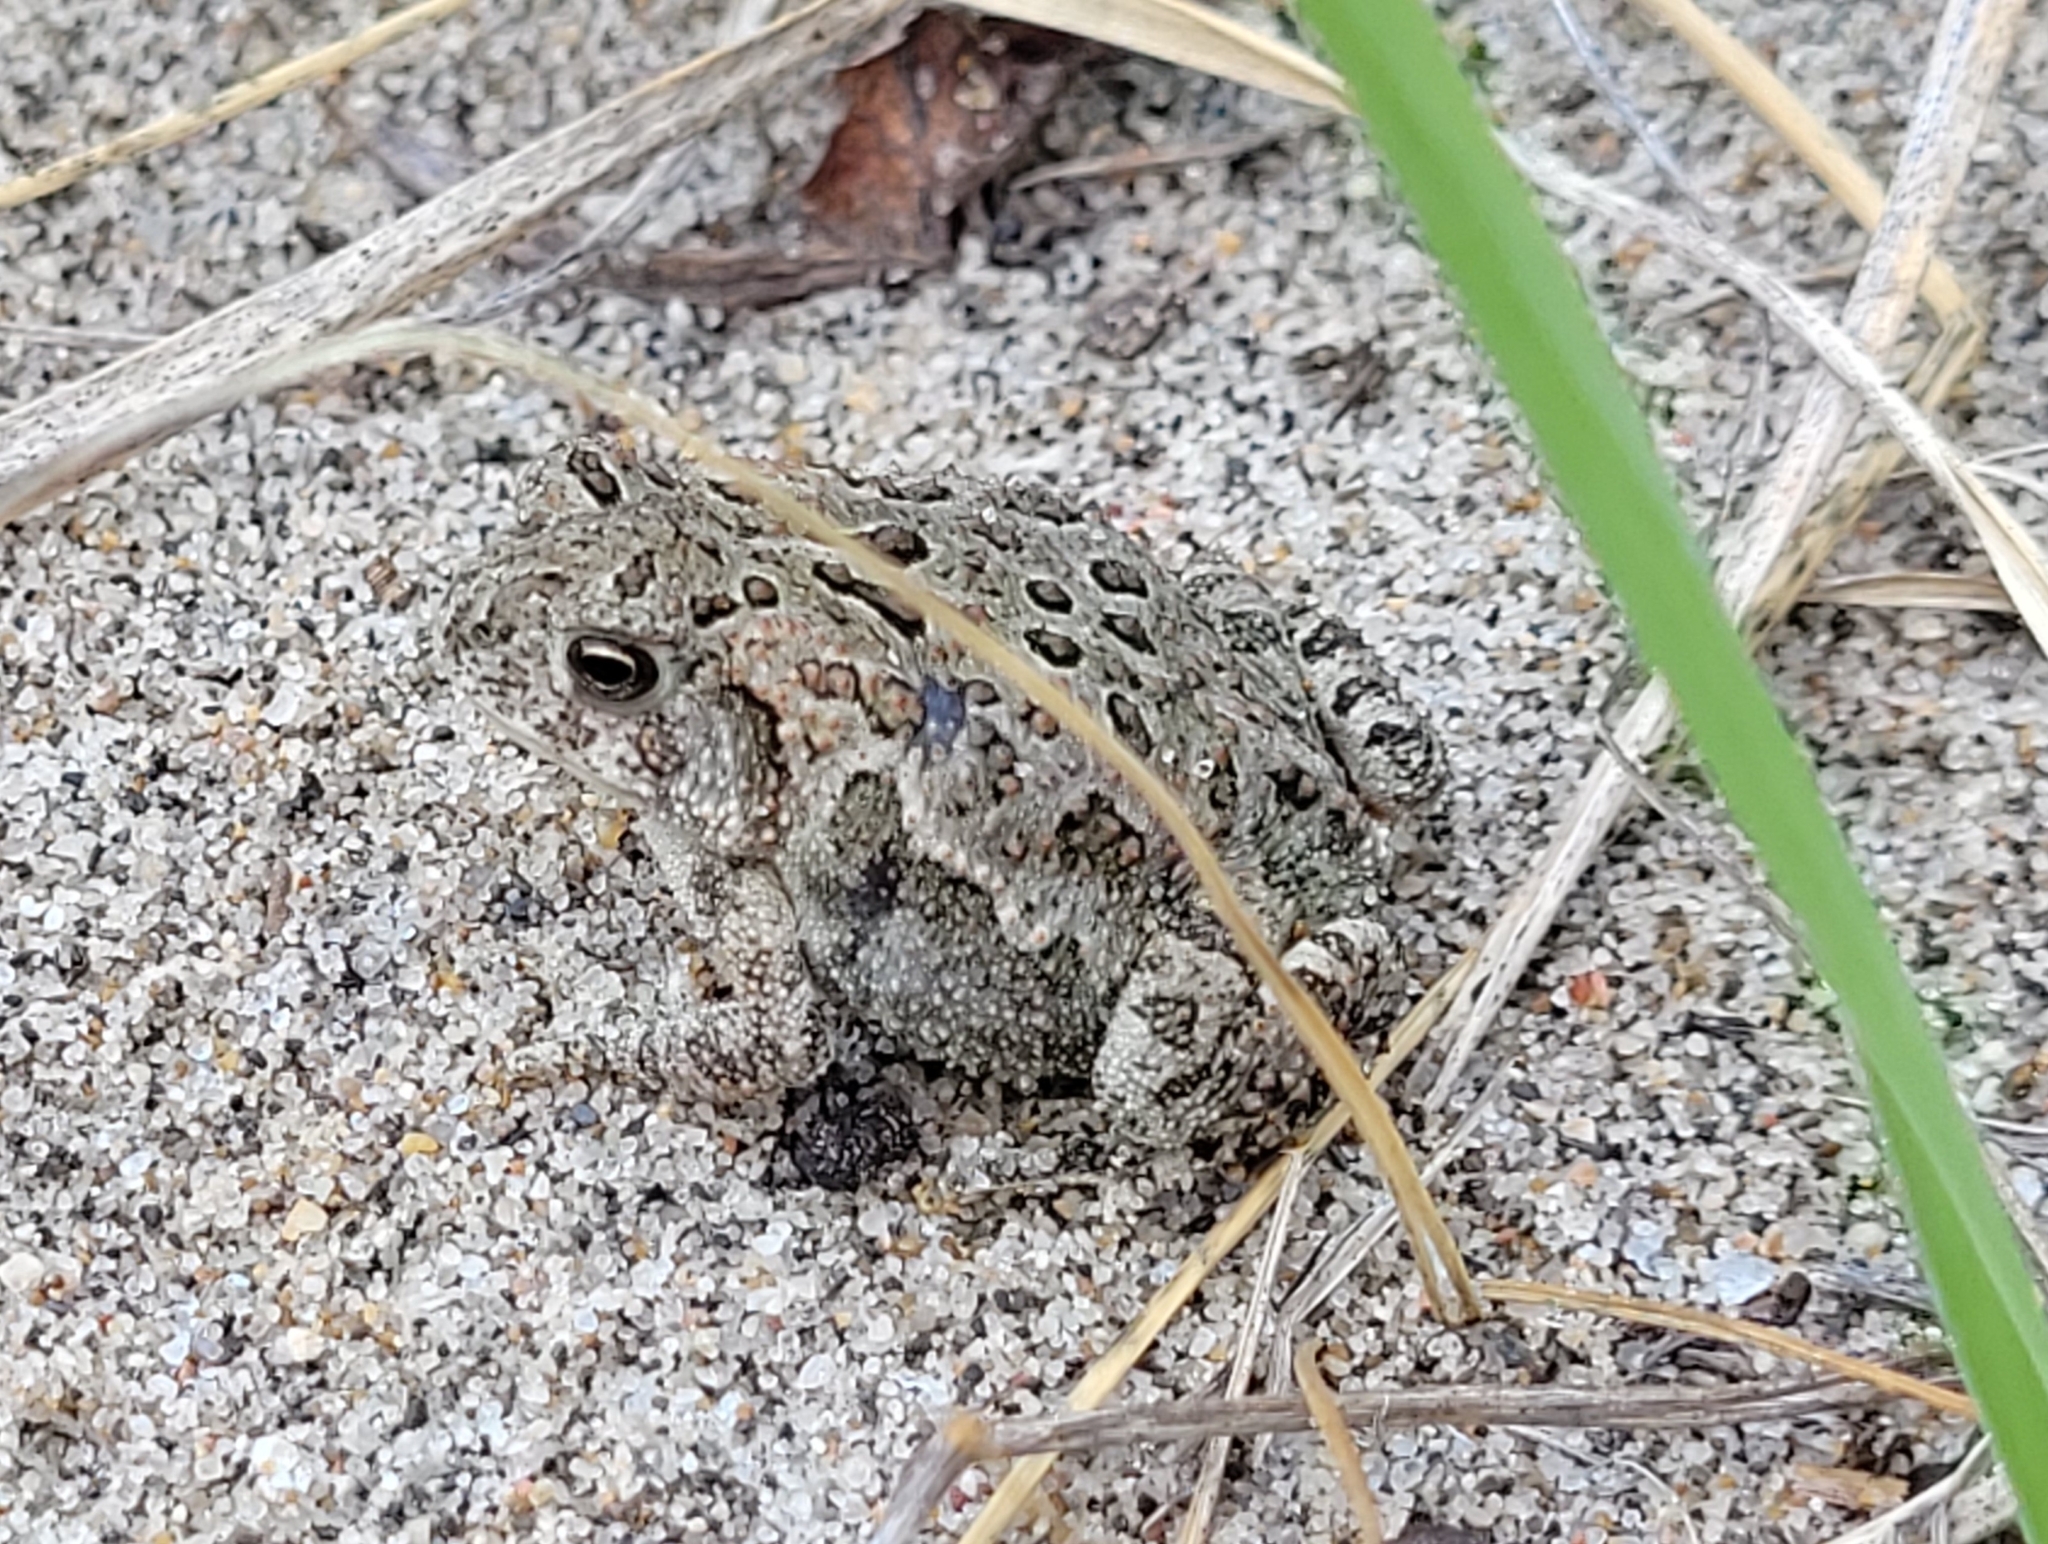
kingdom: Animalia
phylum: Chordata
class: Amphibia
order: Anura
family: Bufonidae
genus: Anaxyrus
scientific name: Anaxyrus hemiophrys
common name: Canadian toad
